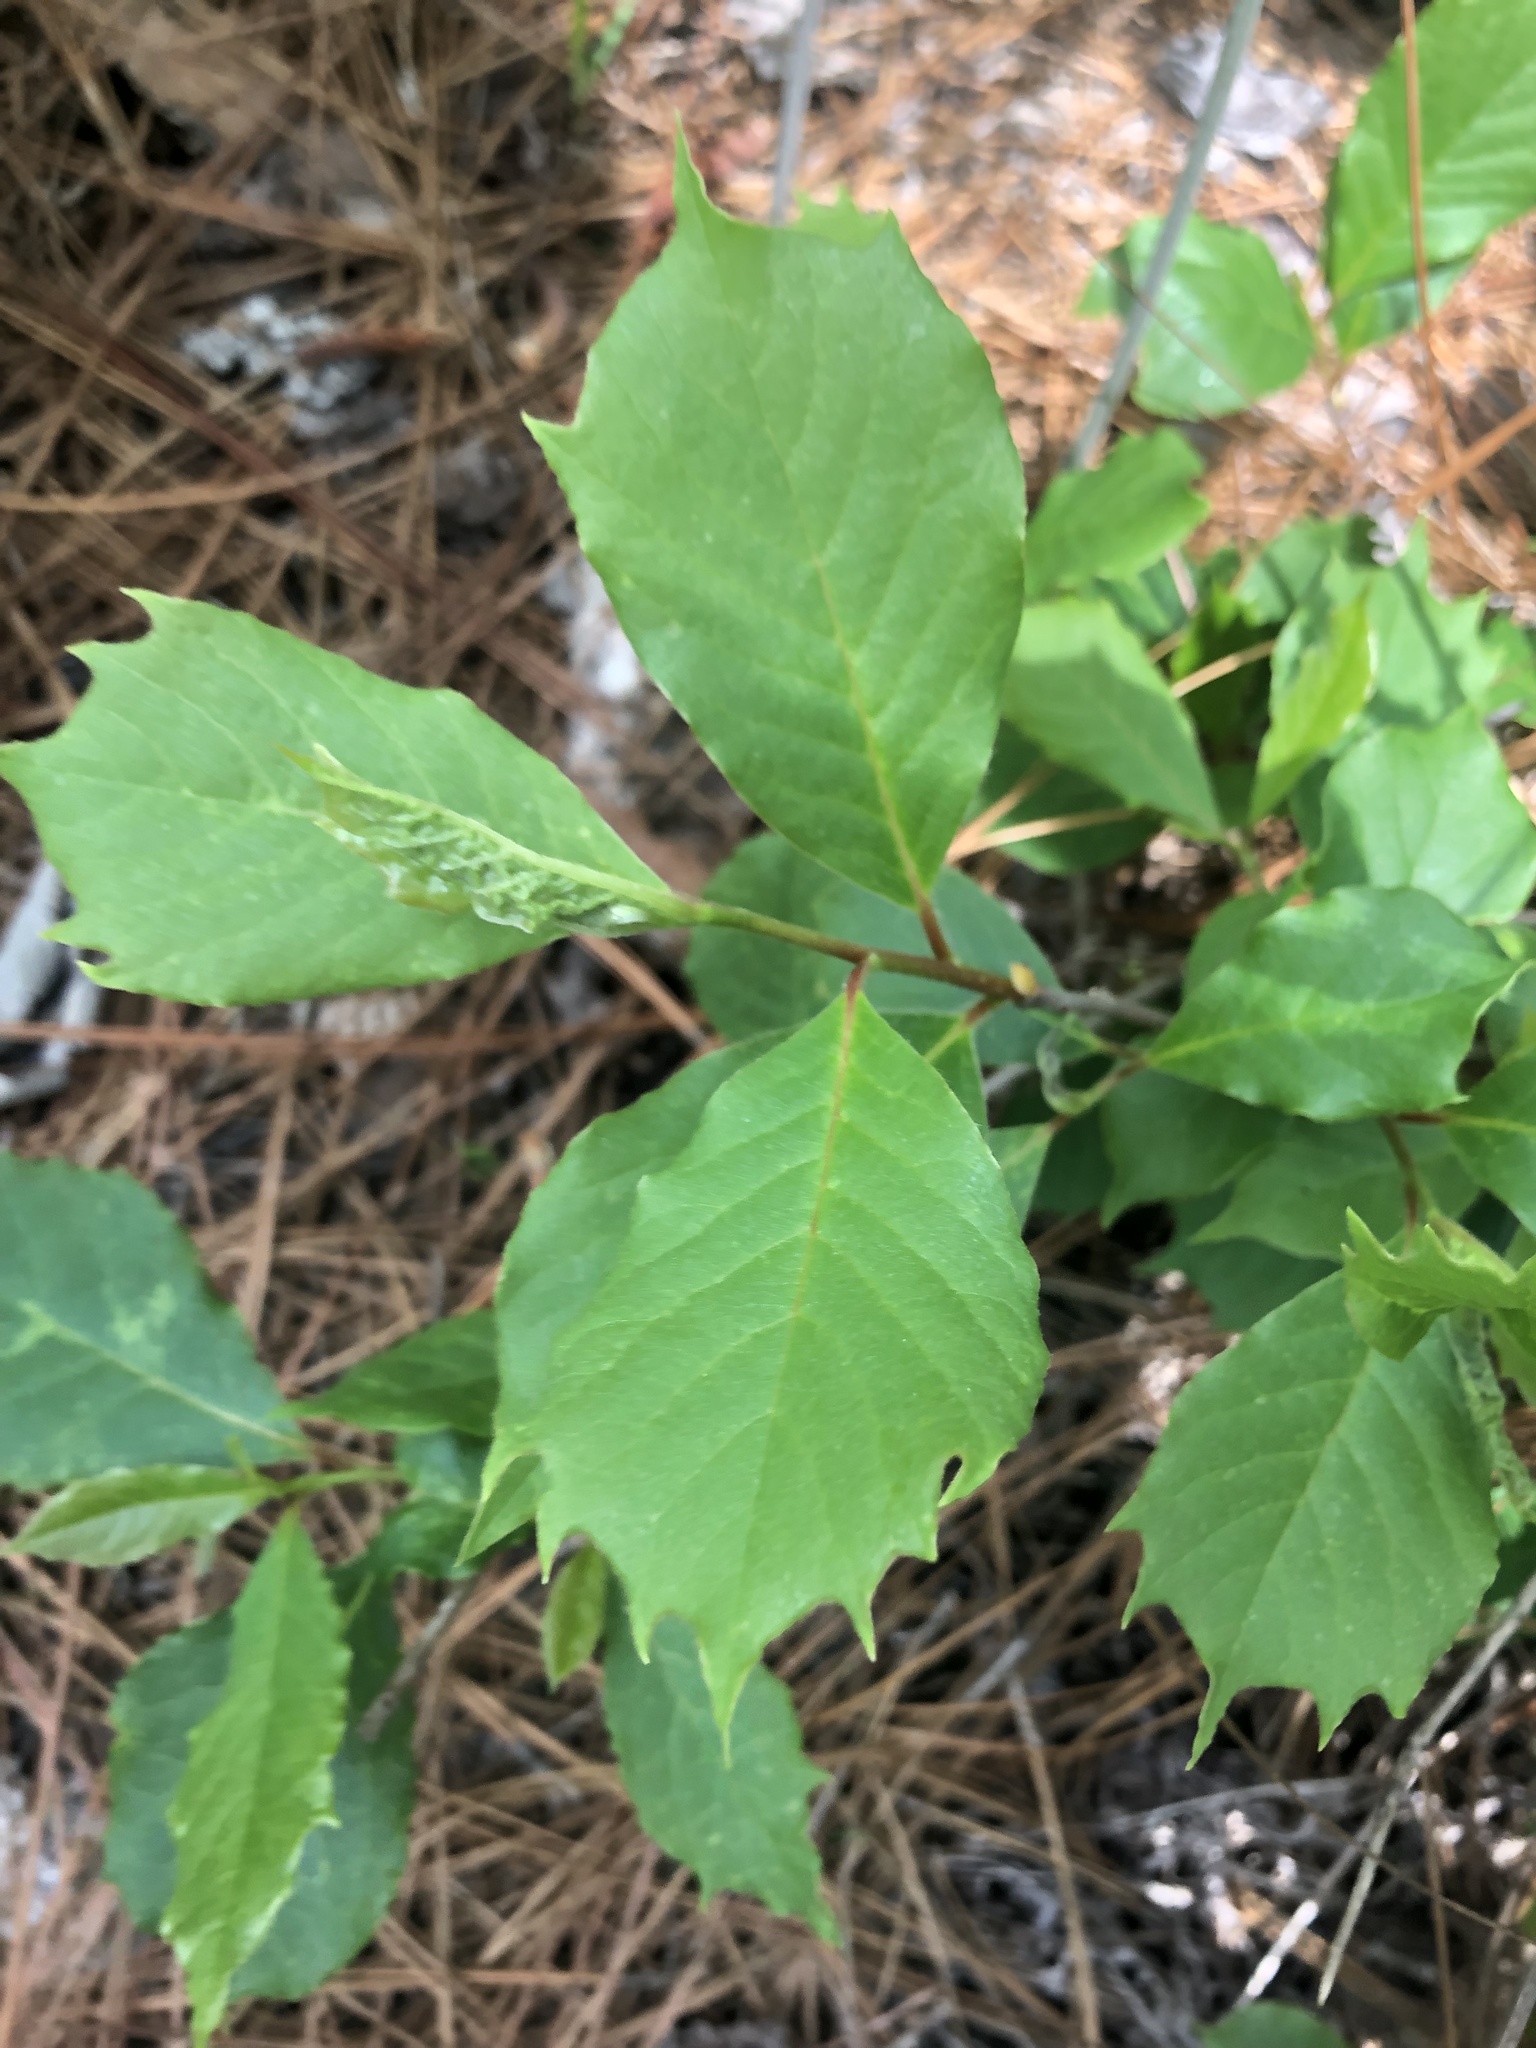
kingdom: Plantae
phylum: Tracheophyta
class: Magnoliopsida
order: Cornales
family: Nyssaceae
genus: Nyssa
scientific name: Nyssa sylvatica
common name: Black tupelo
